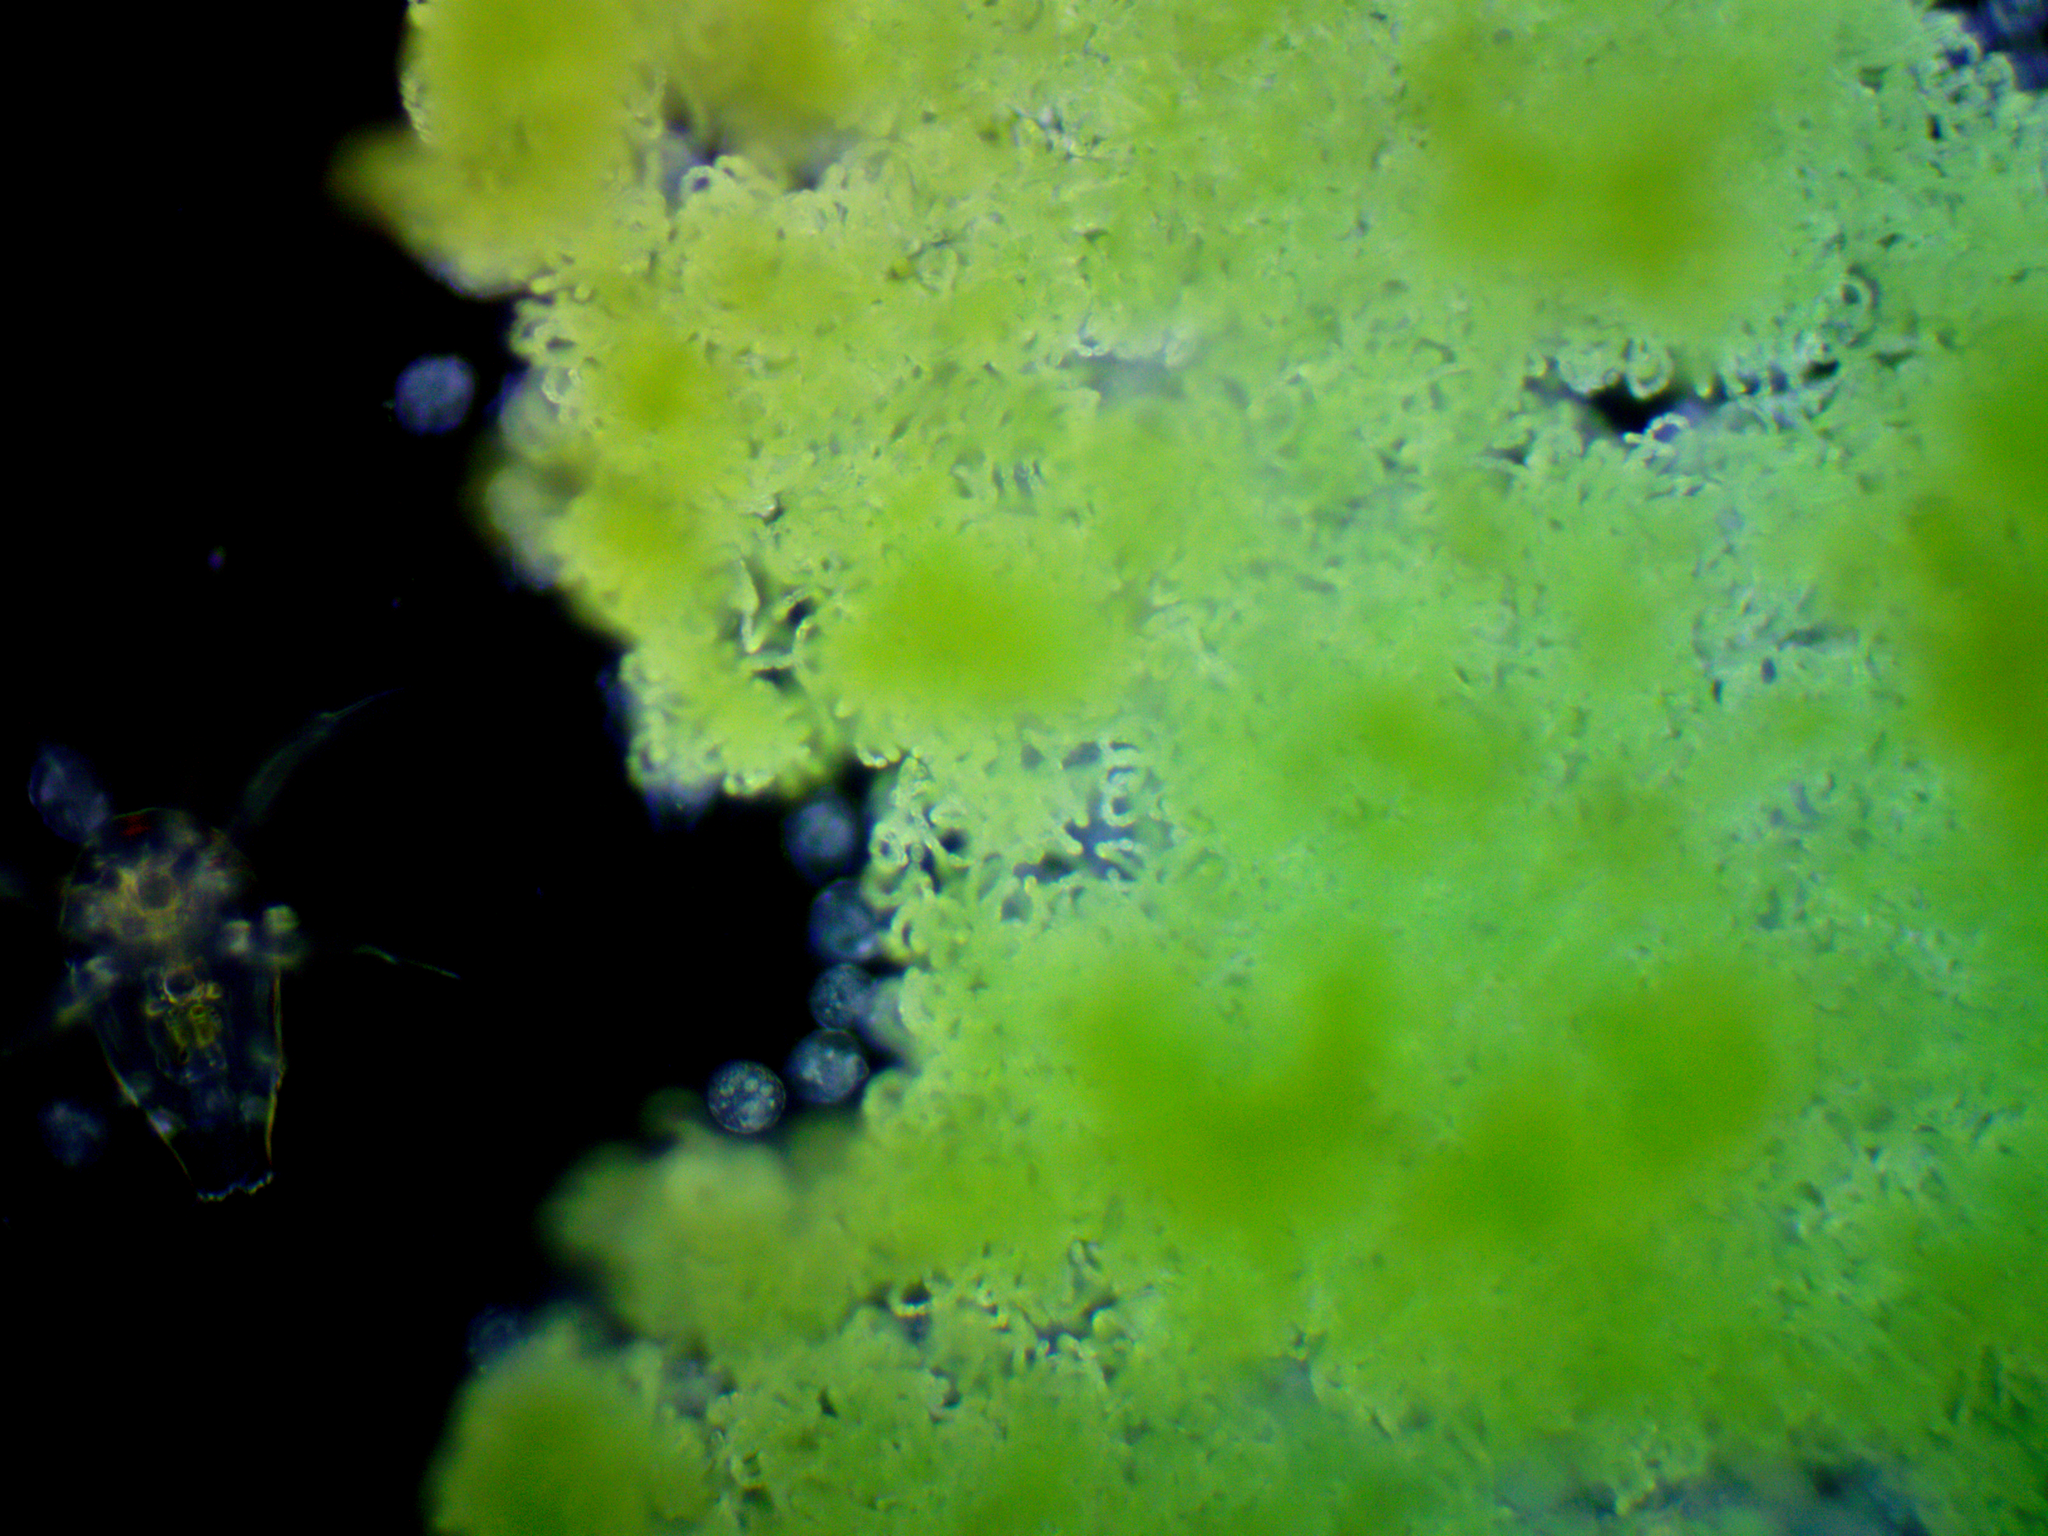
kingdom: Bacteria
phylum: Cyanobacteria
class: Cyanobacteriia
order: Cyanobacteriales
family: Nostocaceae
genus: Dolichospermum
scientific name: Dolichospermum lemmermannii
